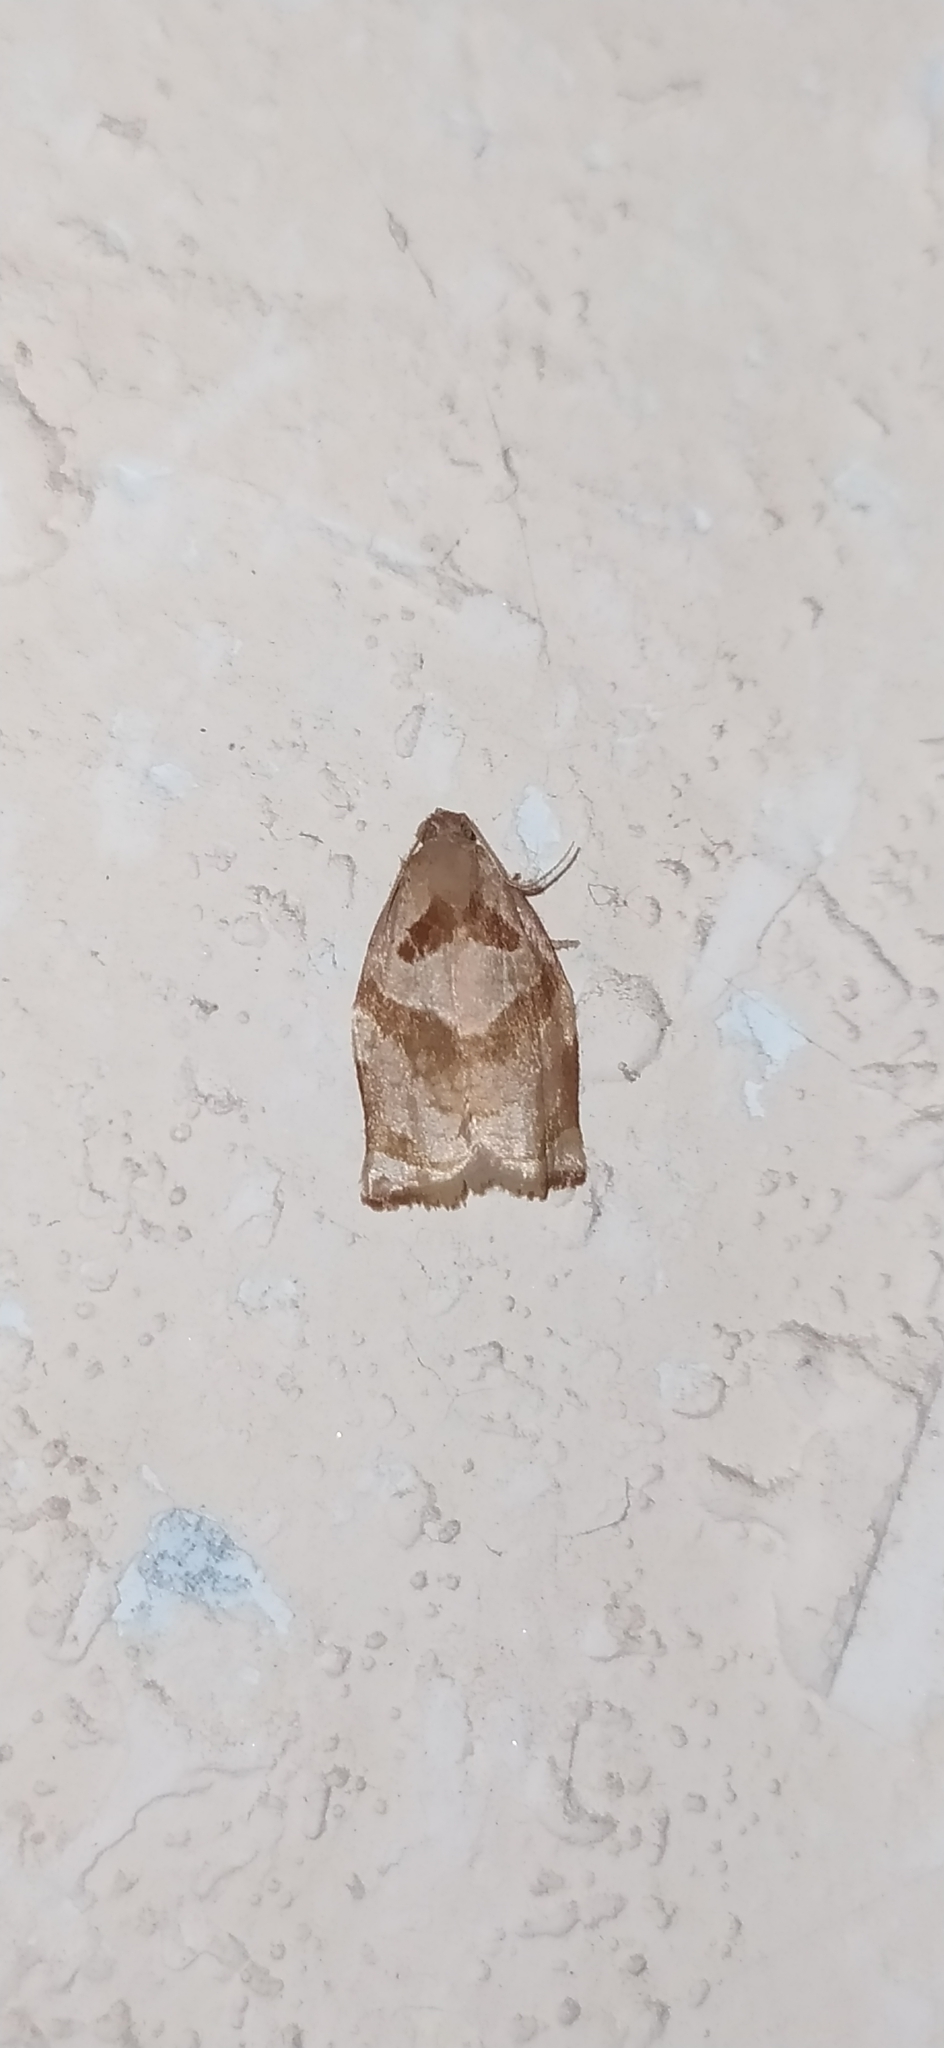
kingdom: Animalia
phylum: Arthropoda
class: Insecta
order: Lepidoptera
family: Tortricidae
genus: Archips
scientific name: Archips rosana
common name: Rose tortrix
